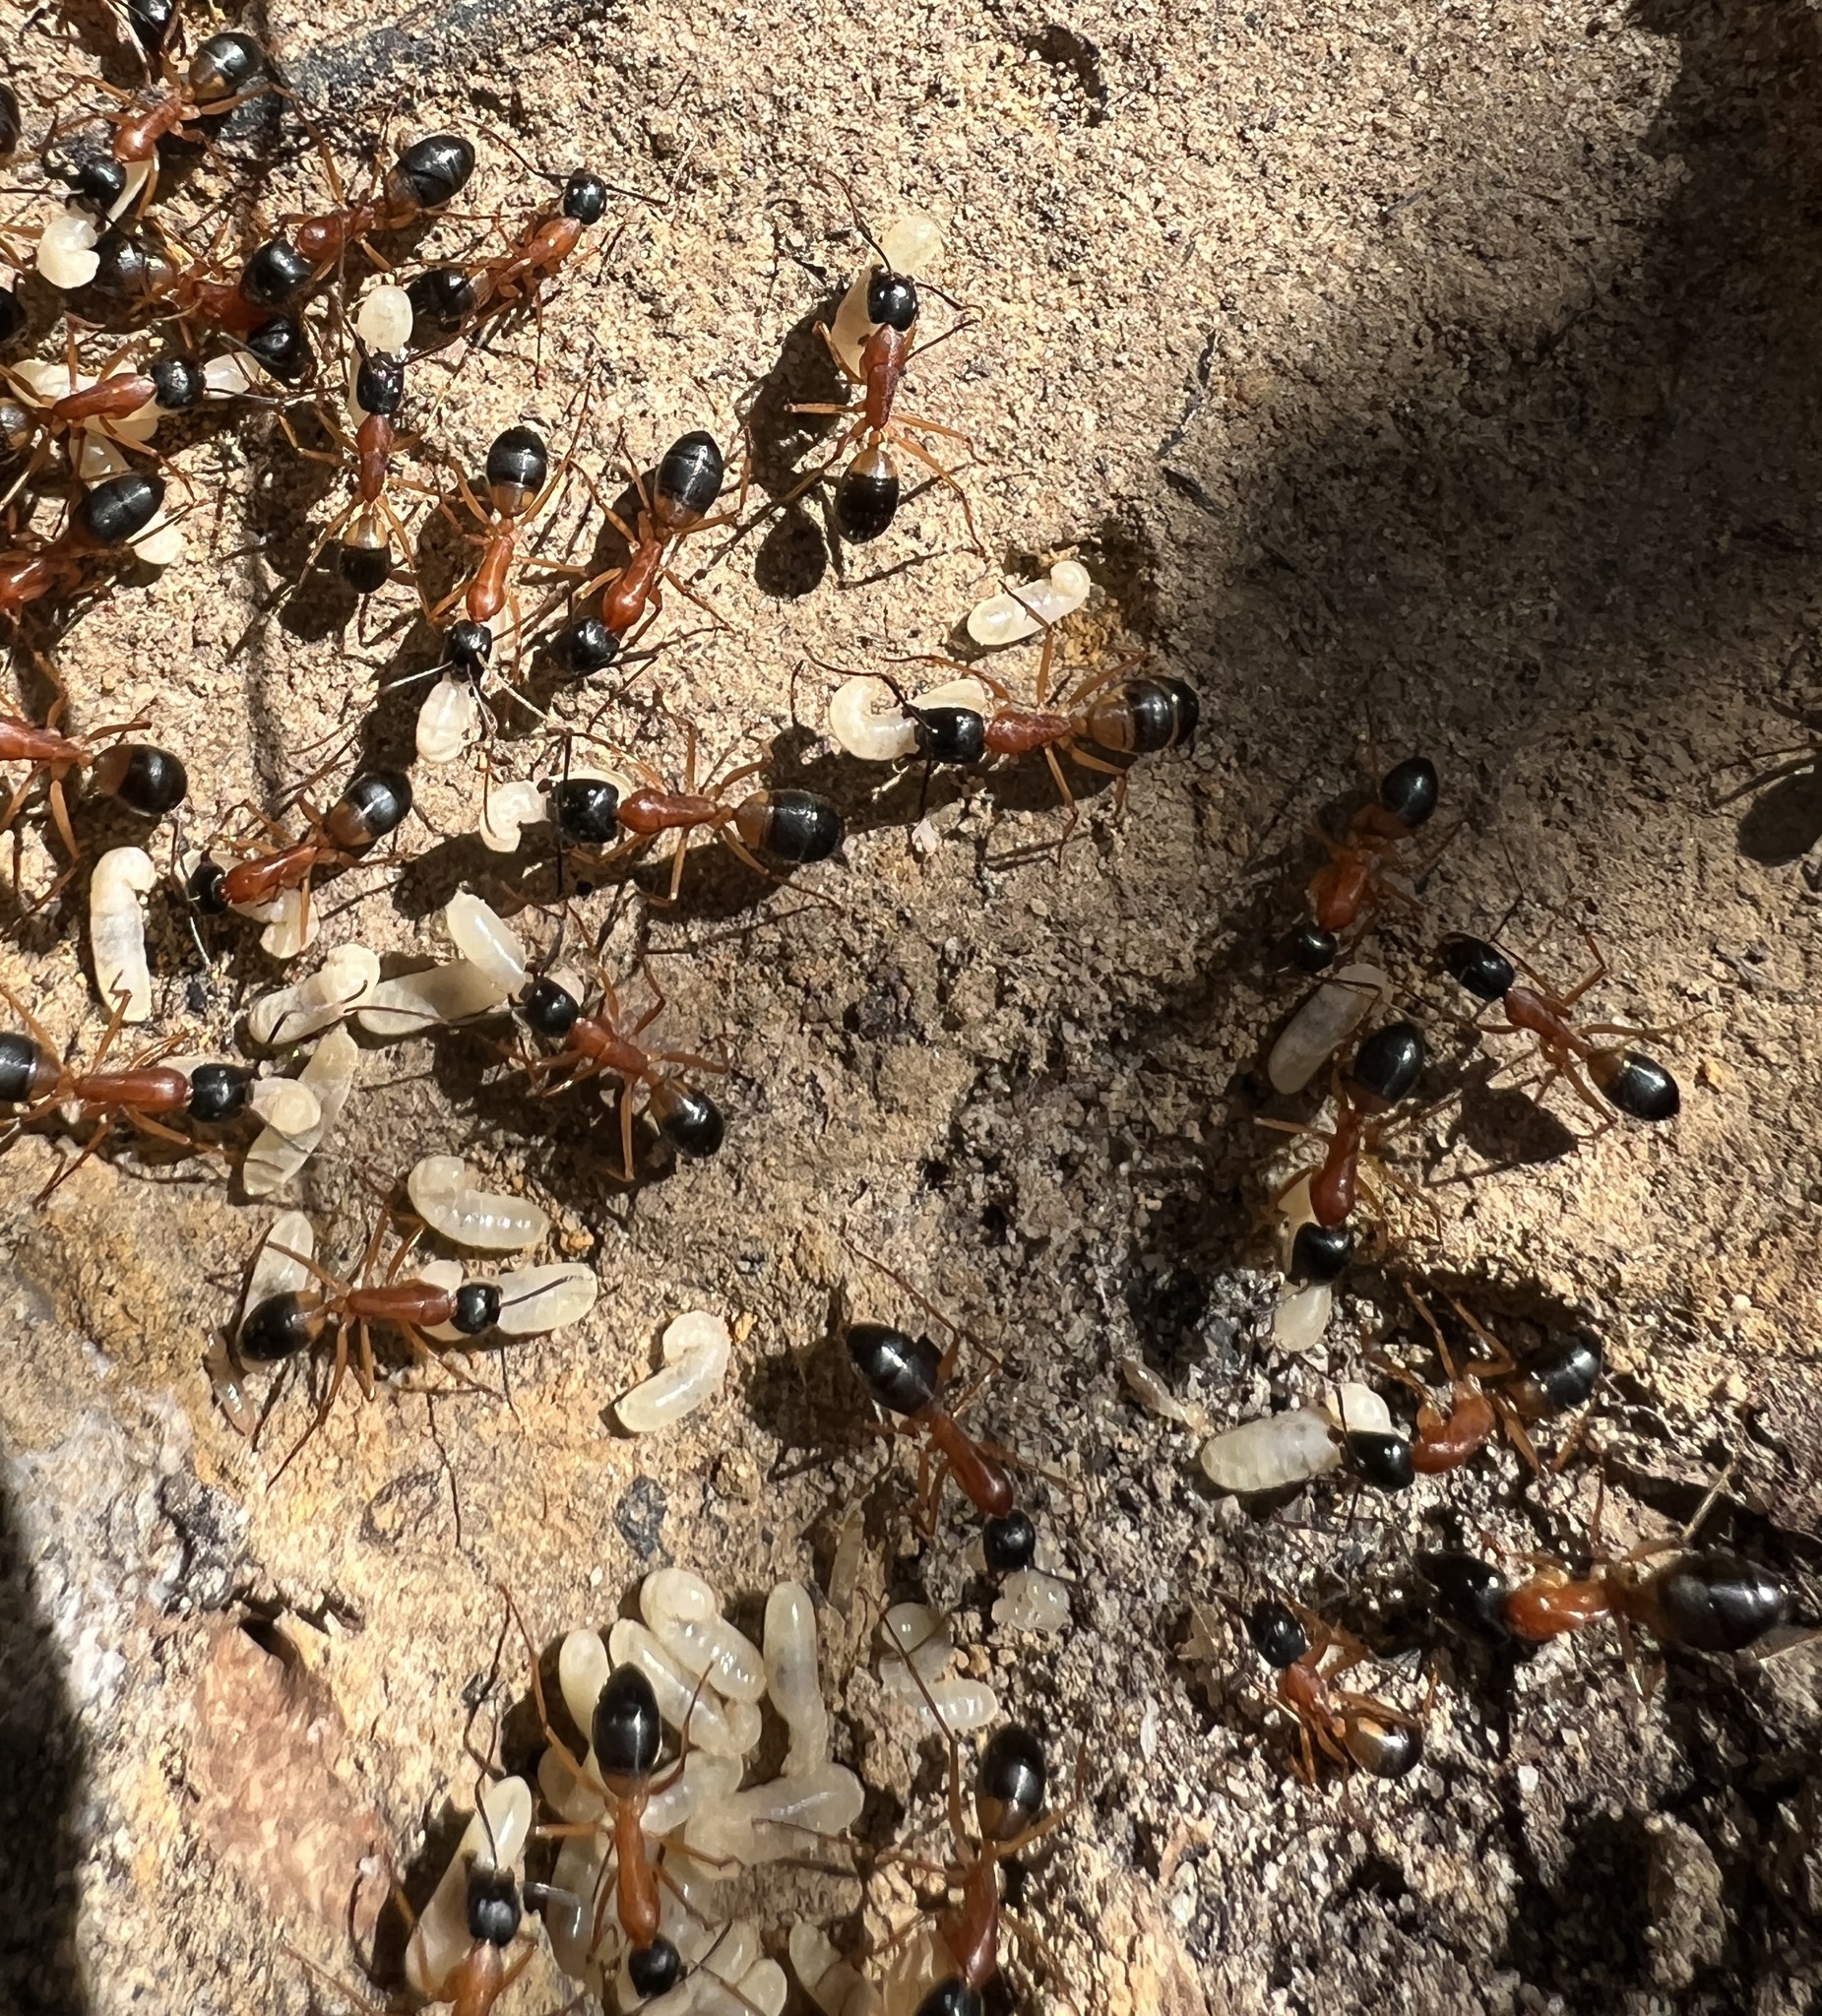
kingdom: Animalia
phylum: Arthropoda
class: Insecta
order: Hymenoptera
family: Formicidae
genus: Camponotus
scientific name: Camponotus consobrinus
